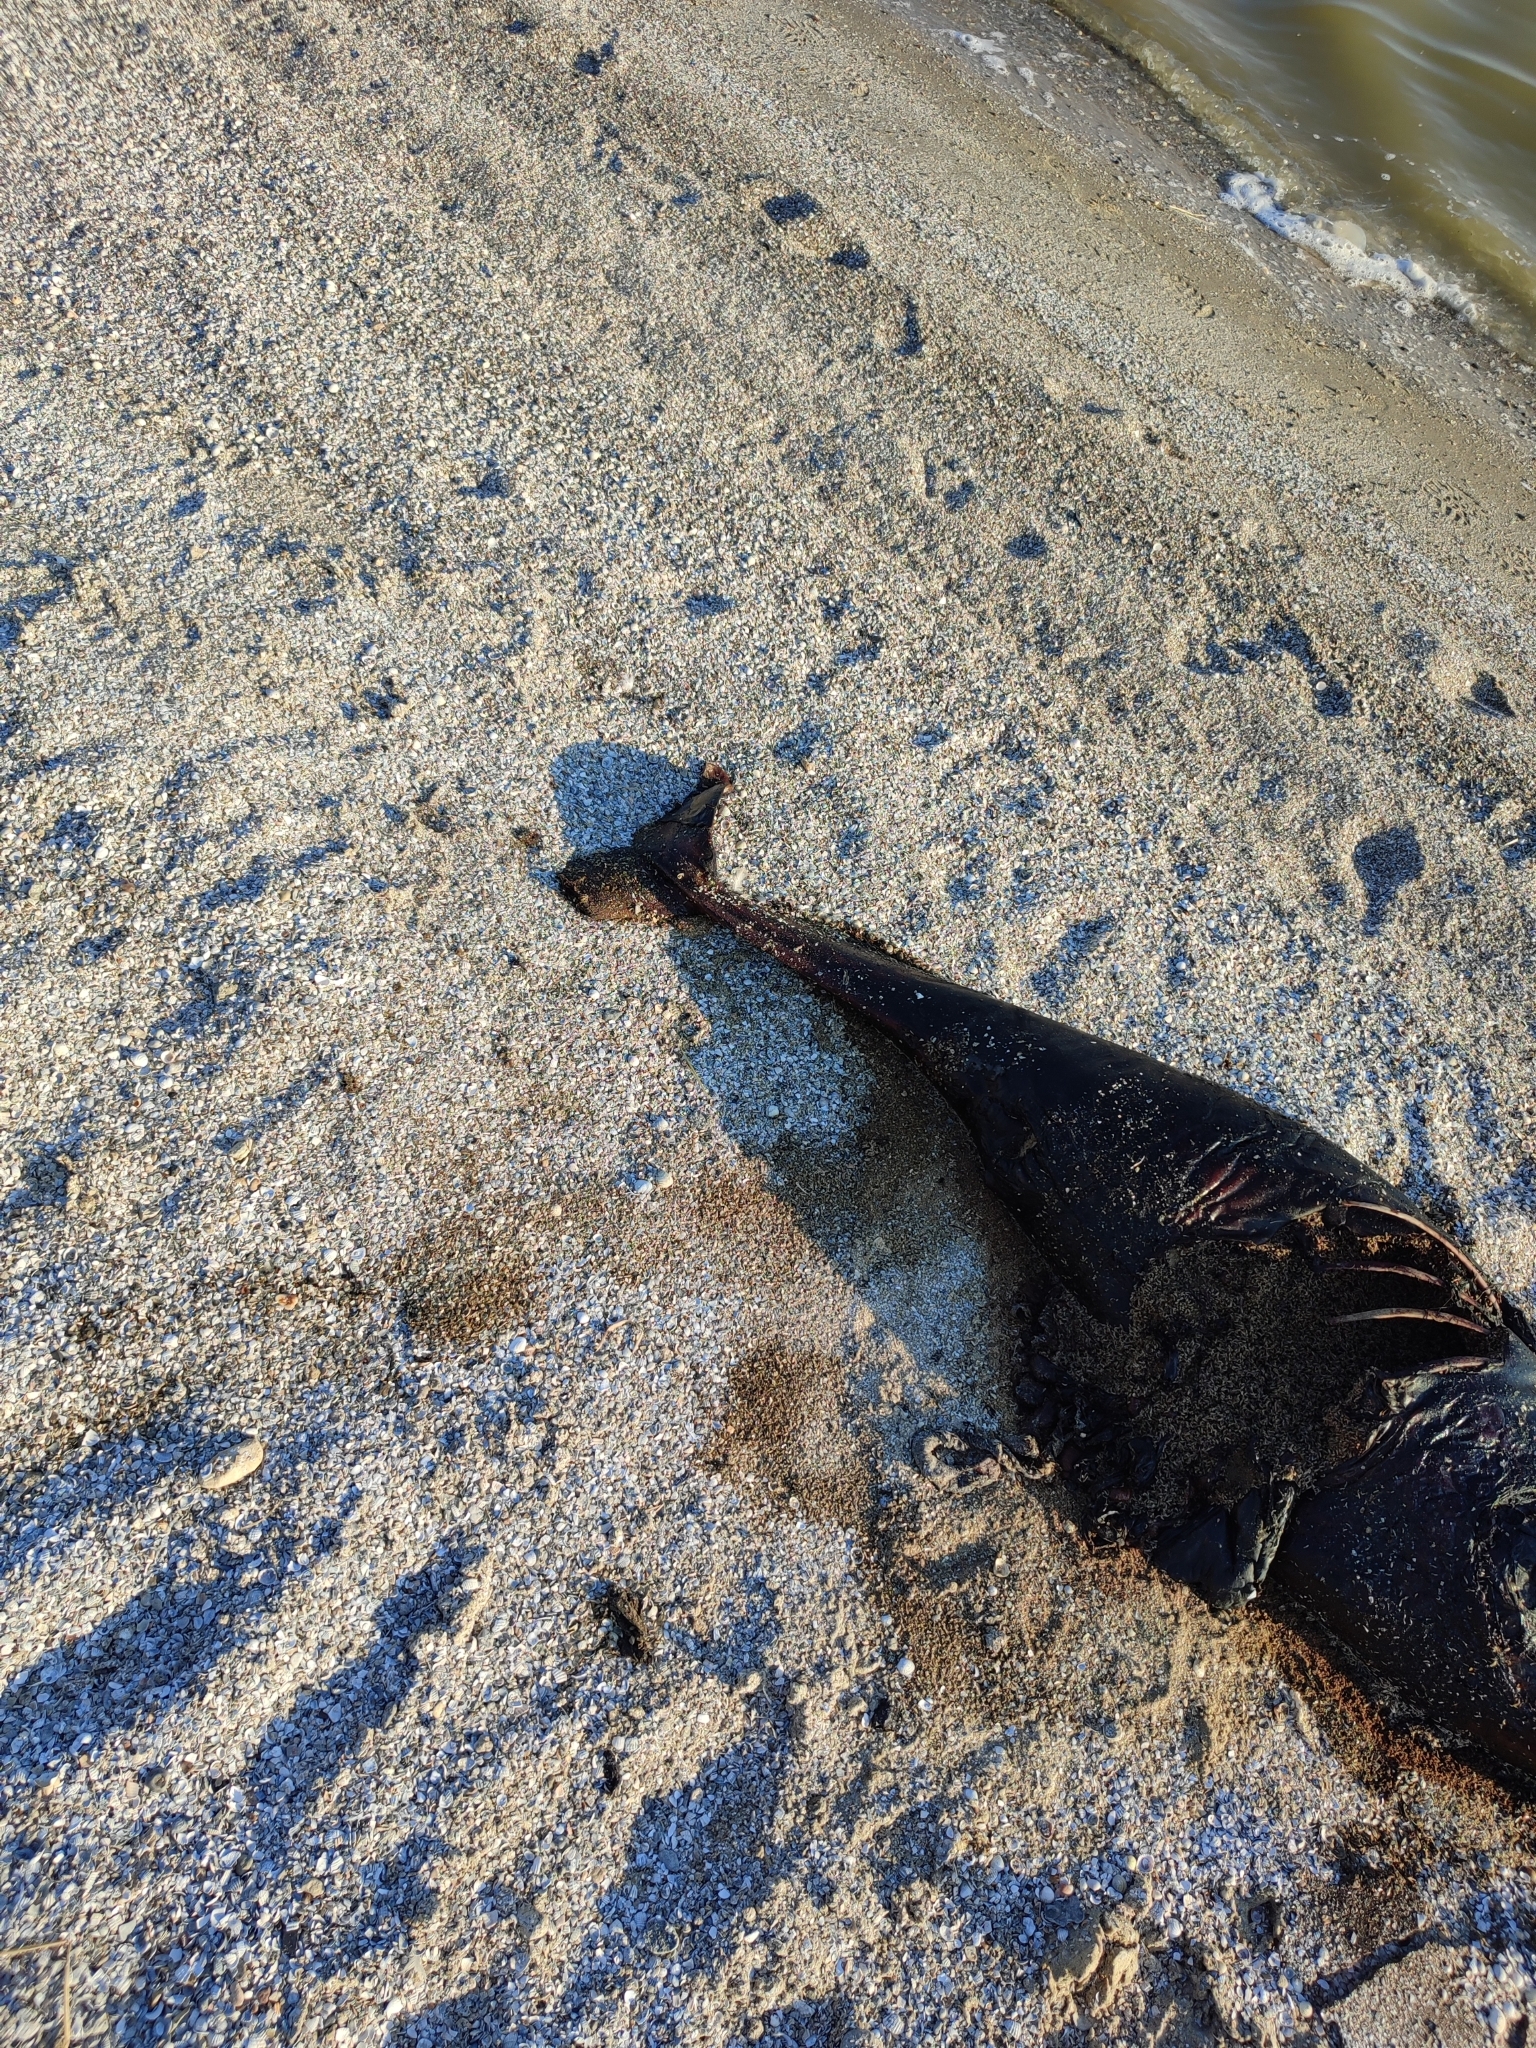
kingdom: Animalia
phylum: Chordata
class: Mammalia
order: Cetacea
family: Phocoenidae
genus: Phocoena
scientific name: Phocoena phocoena
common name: Harbor porpoise
